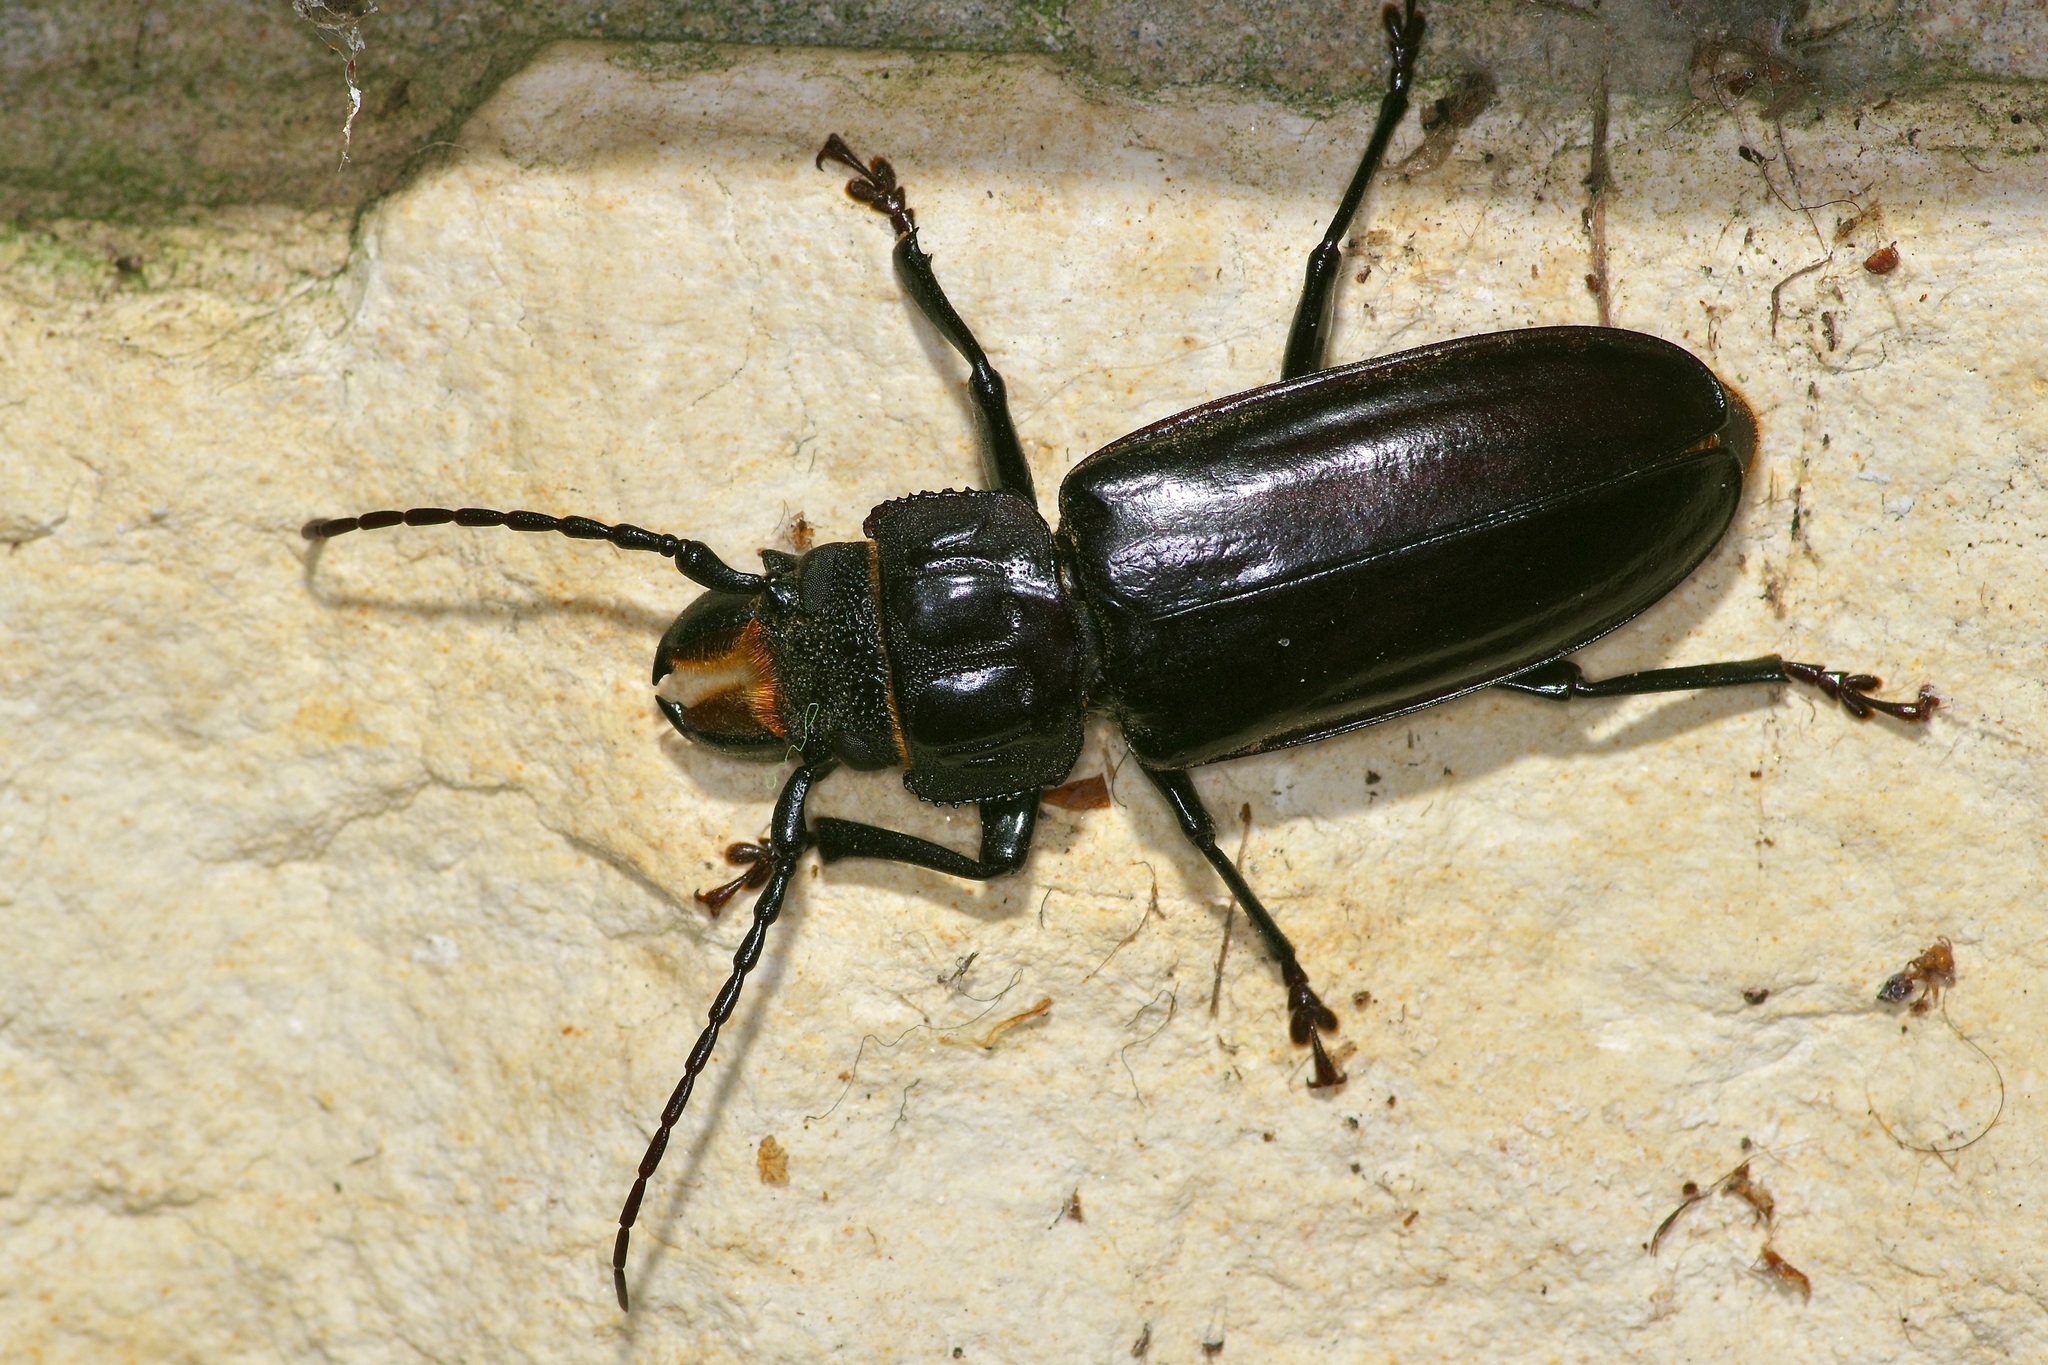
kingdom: Animalia
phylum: Arthropoda
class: Insecta
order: Coleoptera
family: Cerambycidae
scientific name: Cerambycidae
